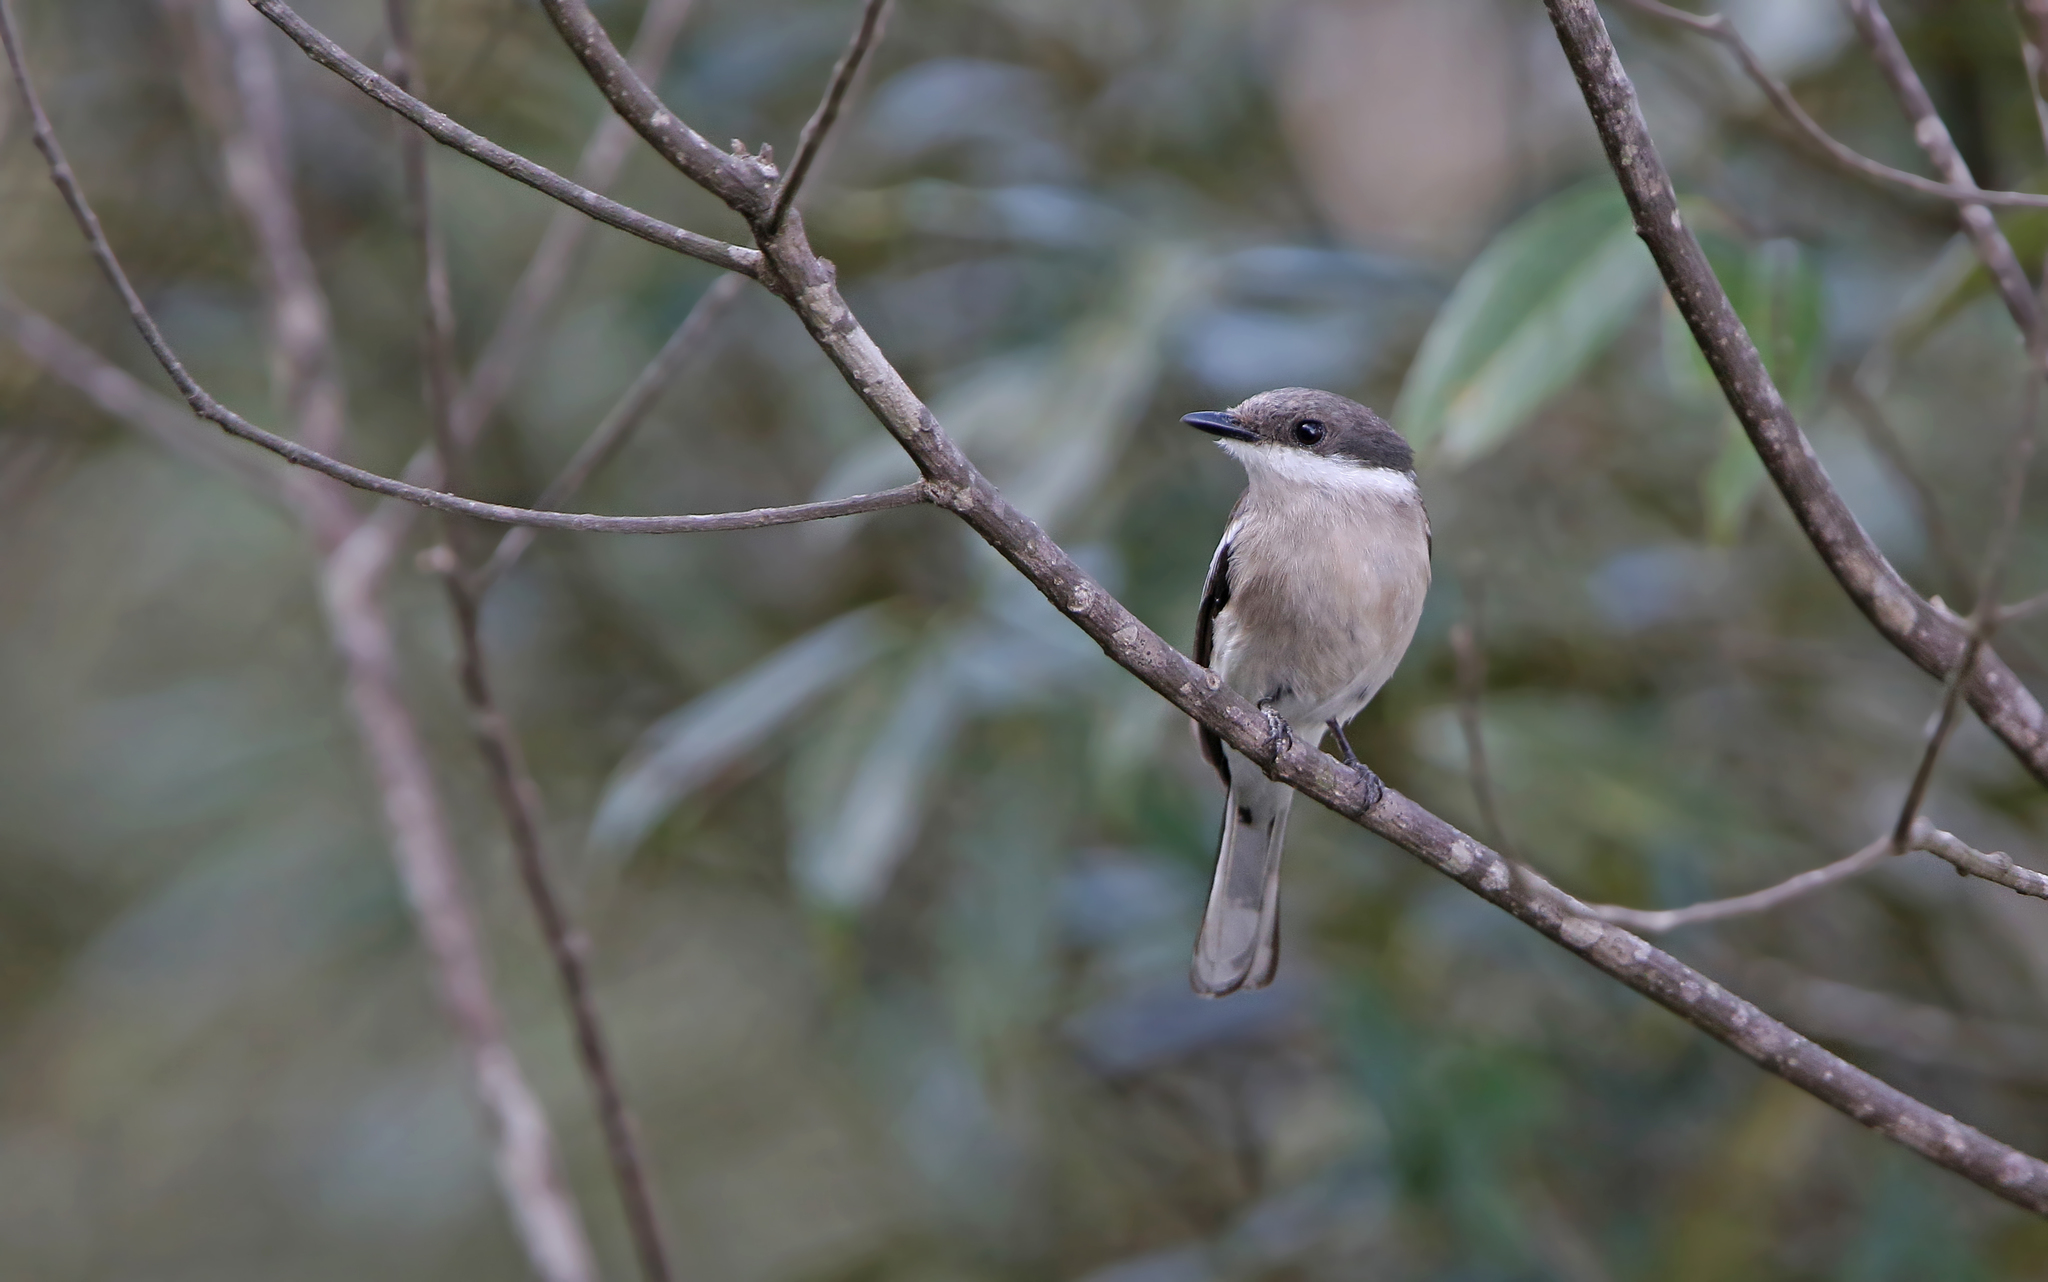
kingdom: Animalia
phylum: Chordata
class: Aves
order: Passeriformes
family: Tephrodornithidae
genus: Hemipus
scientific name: Hemipus picatus
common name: Bar-winged flycatcher-shrike
